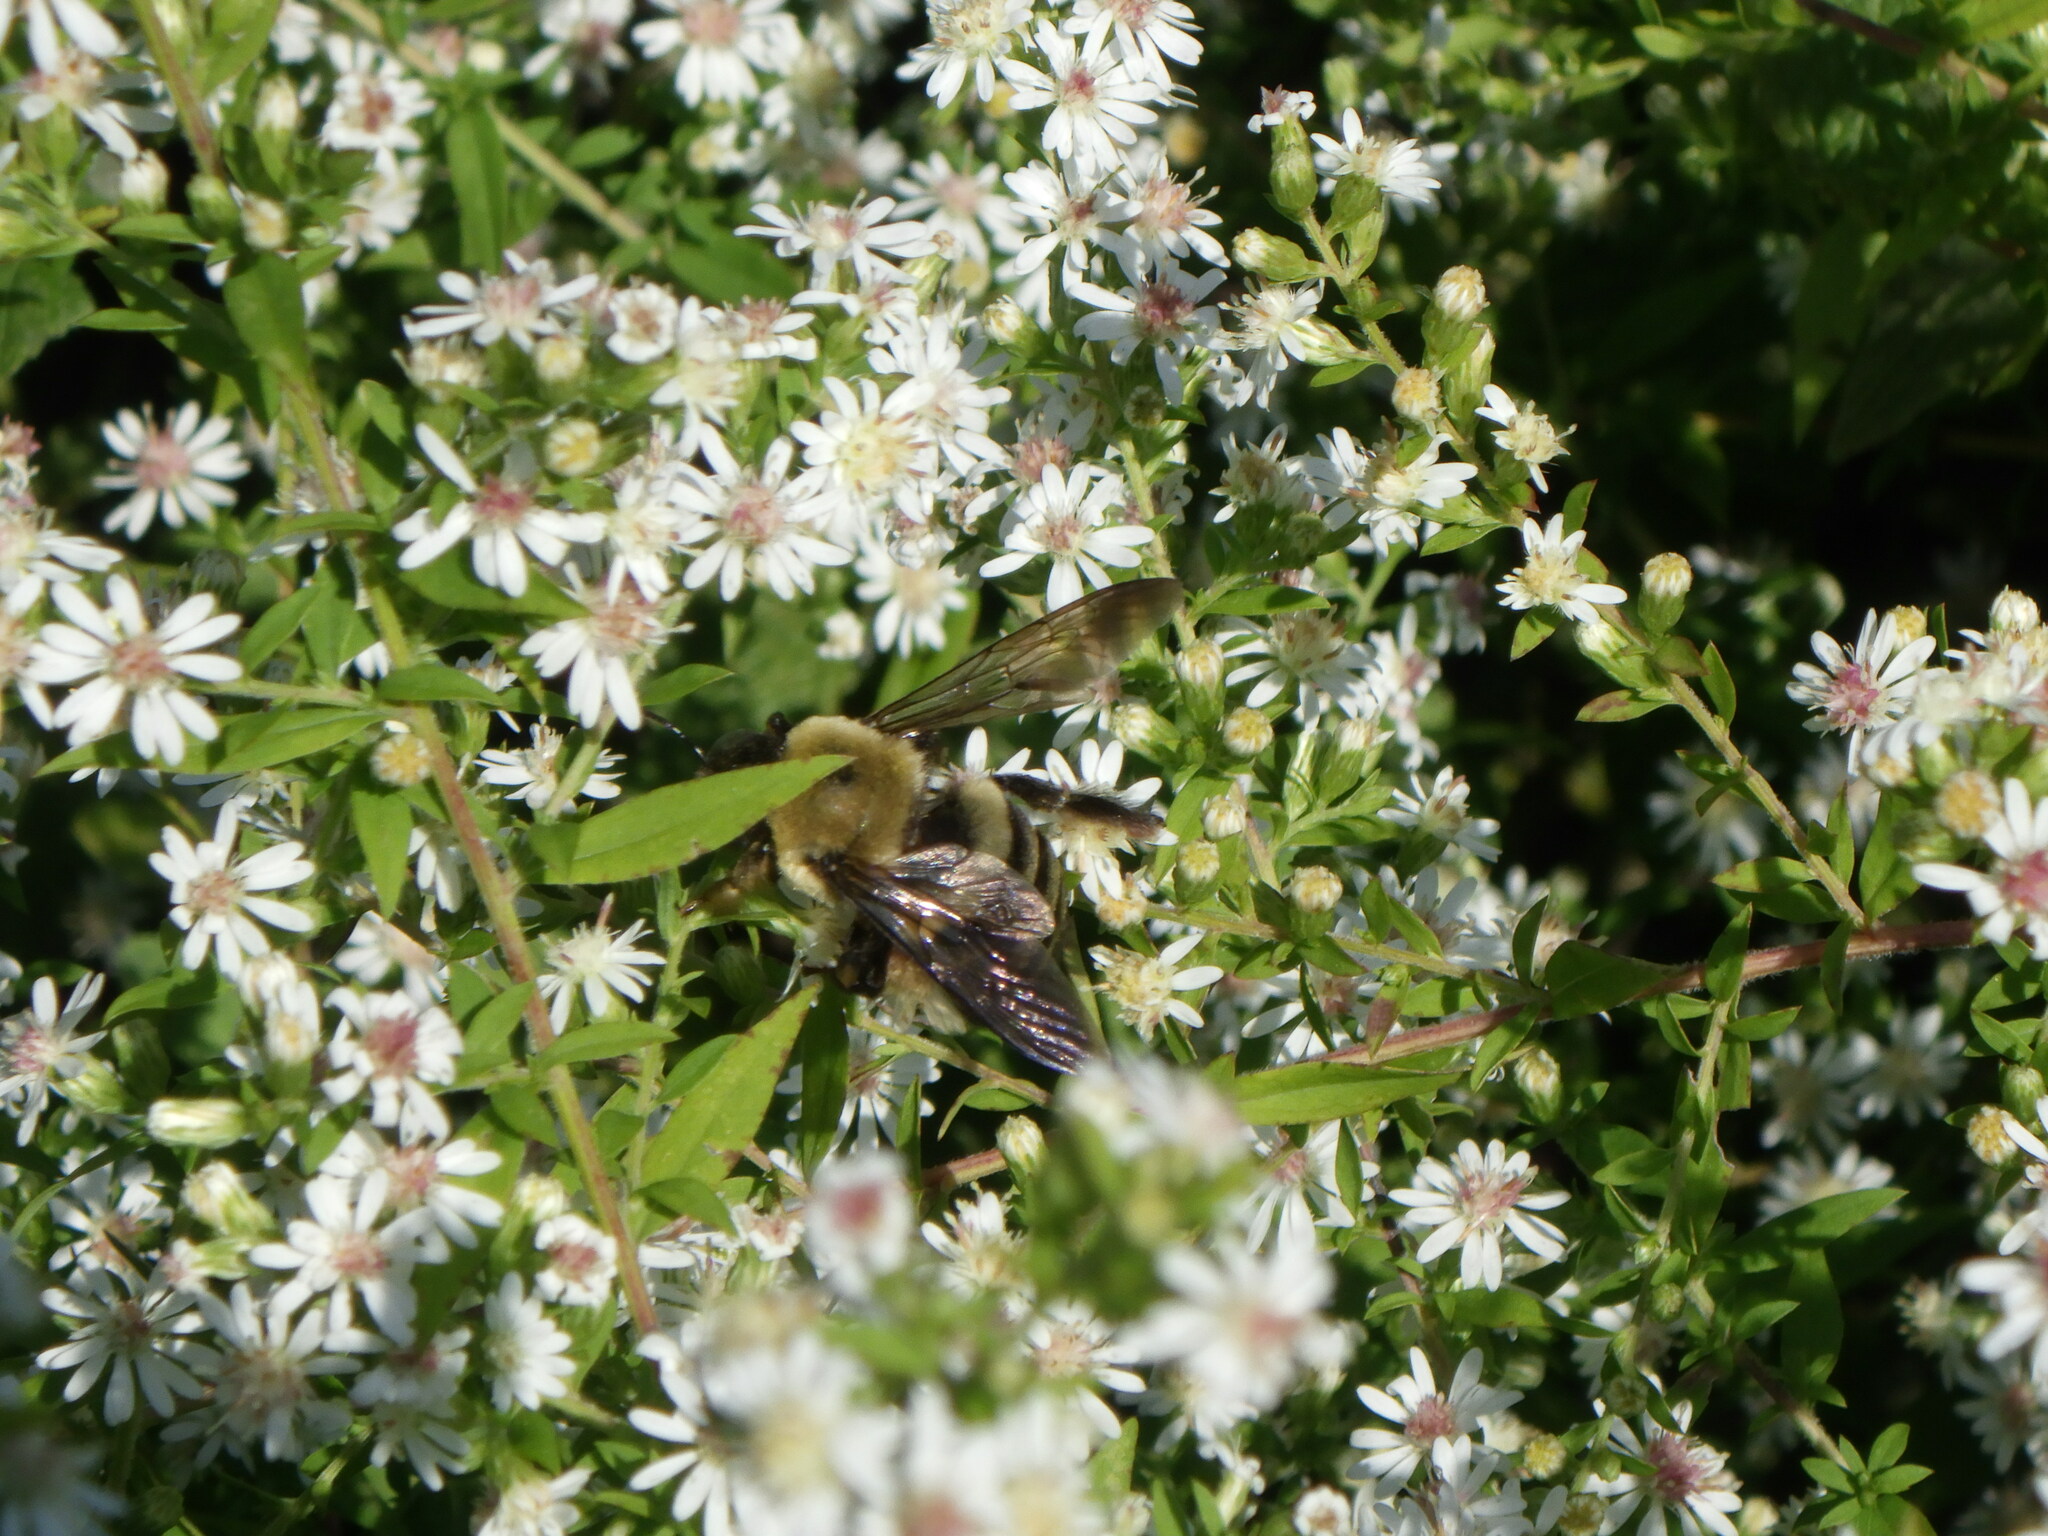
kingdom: Animalia
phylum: Arthropoda
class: Insecta
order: Hymenoptera
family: Apidae
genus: Xylocopa
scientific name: Xylocopa virginica
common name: Carpenter bee
